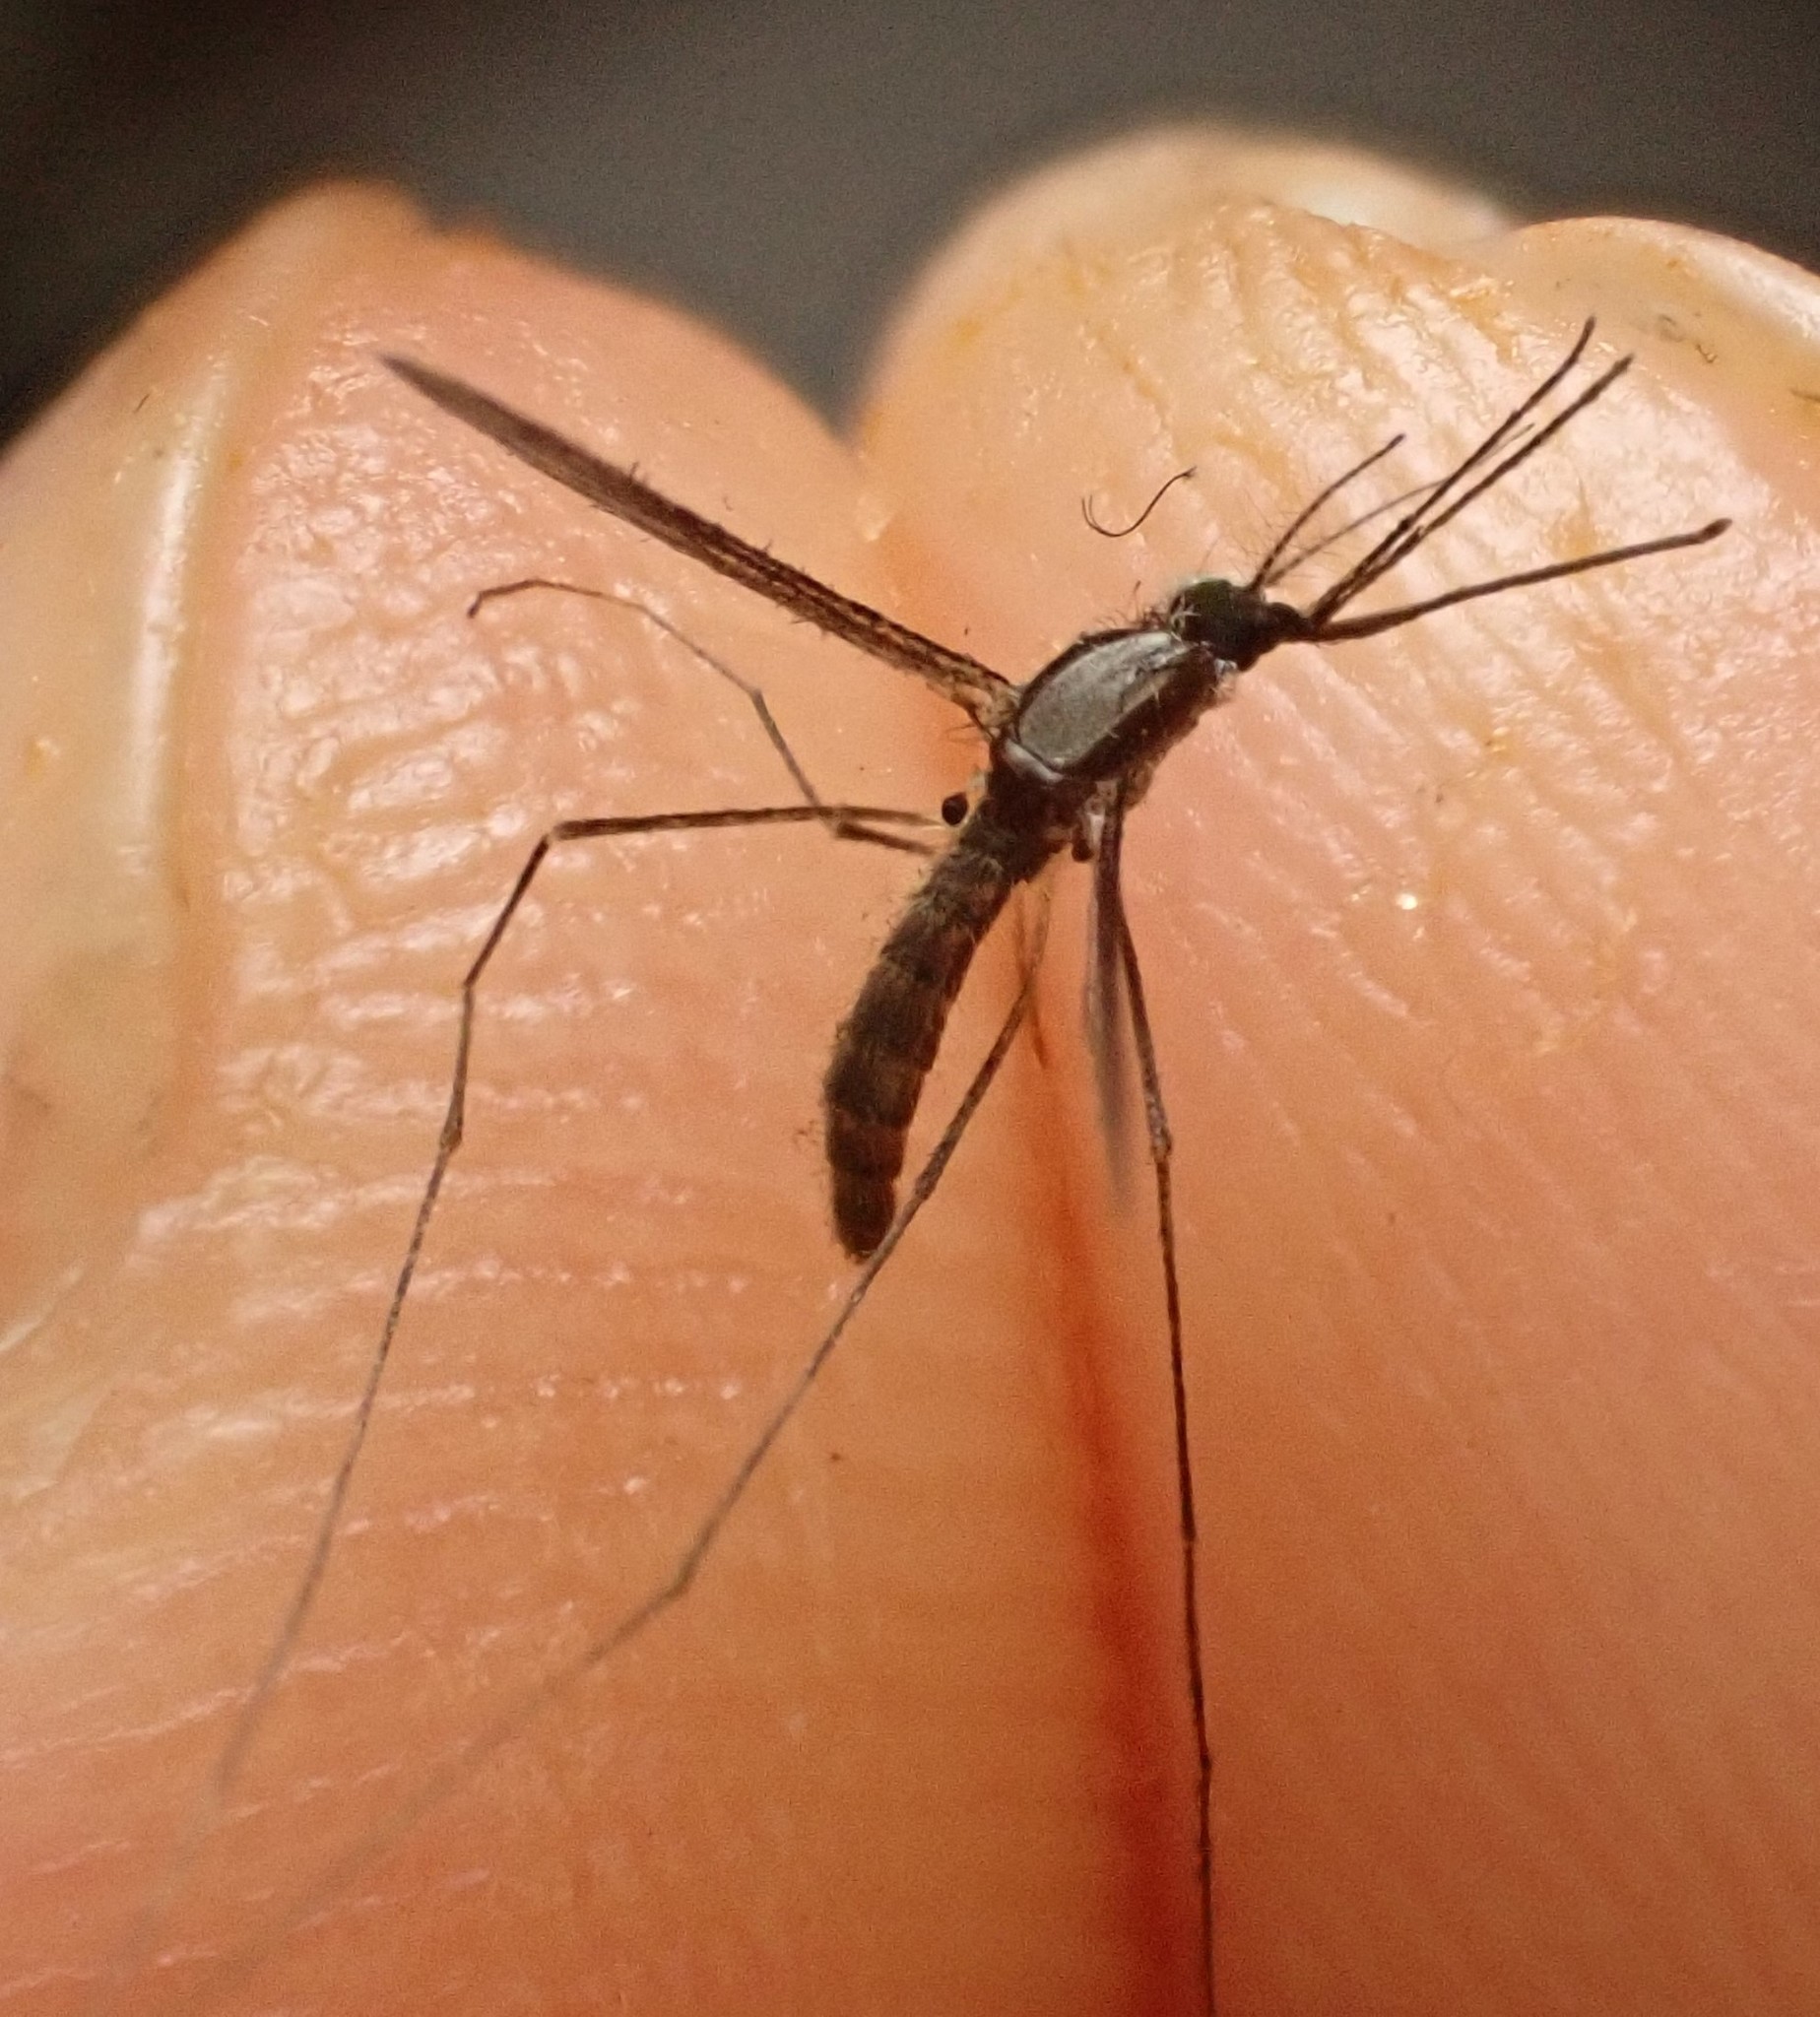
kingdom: Animalia
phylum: Arthropoda
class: Insecta
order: Diptera
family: Culicidae
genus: Anopheles
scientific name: Anopheles plumbeus
